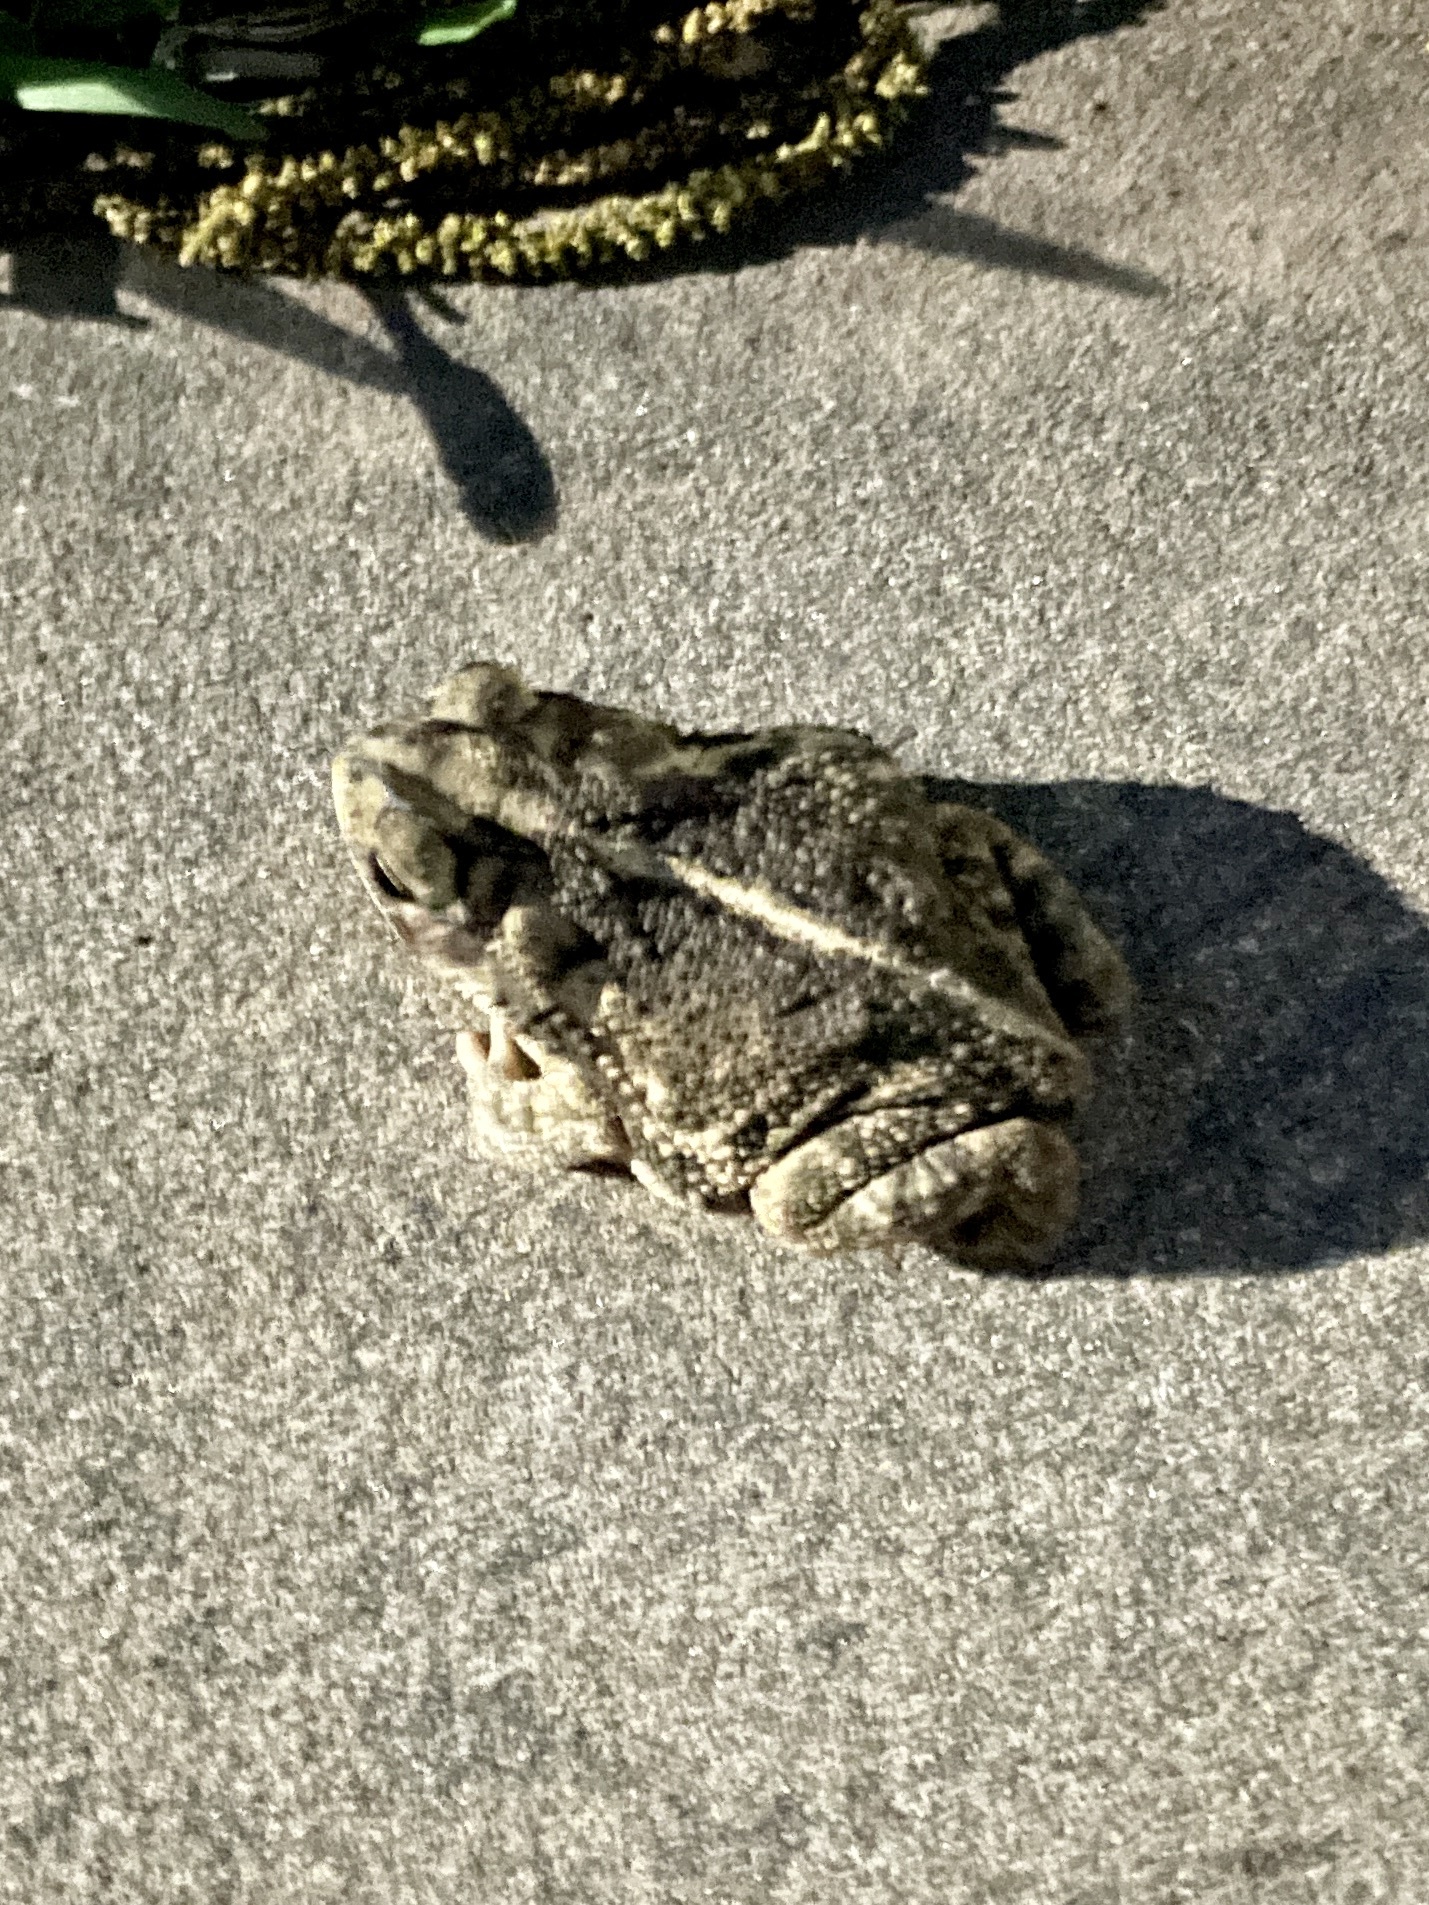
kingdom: Animalia
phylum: Chordata
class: Amphibia
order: Anura
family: Bufonidae
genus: Incilius
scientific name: Incilius nebulifer
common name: Gulf coast toad
